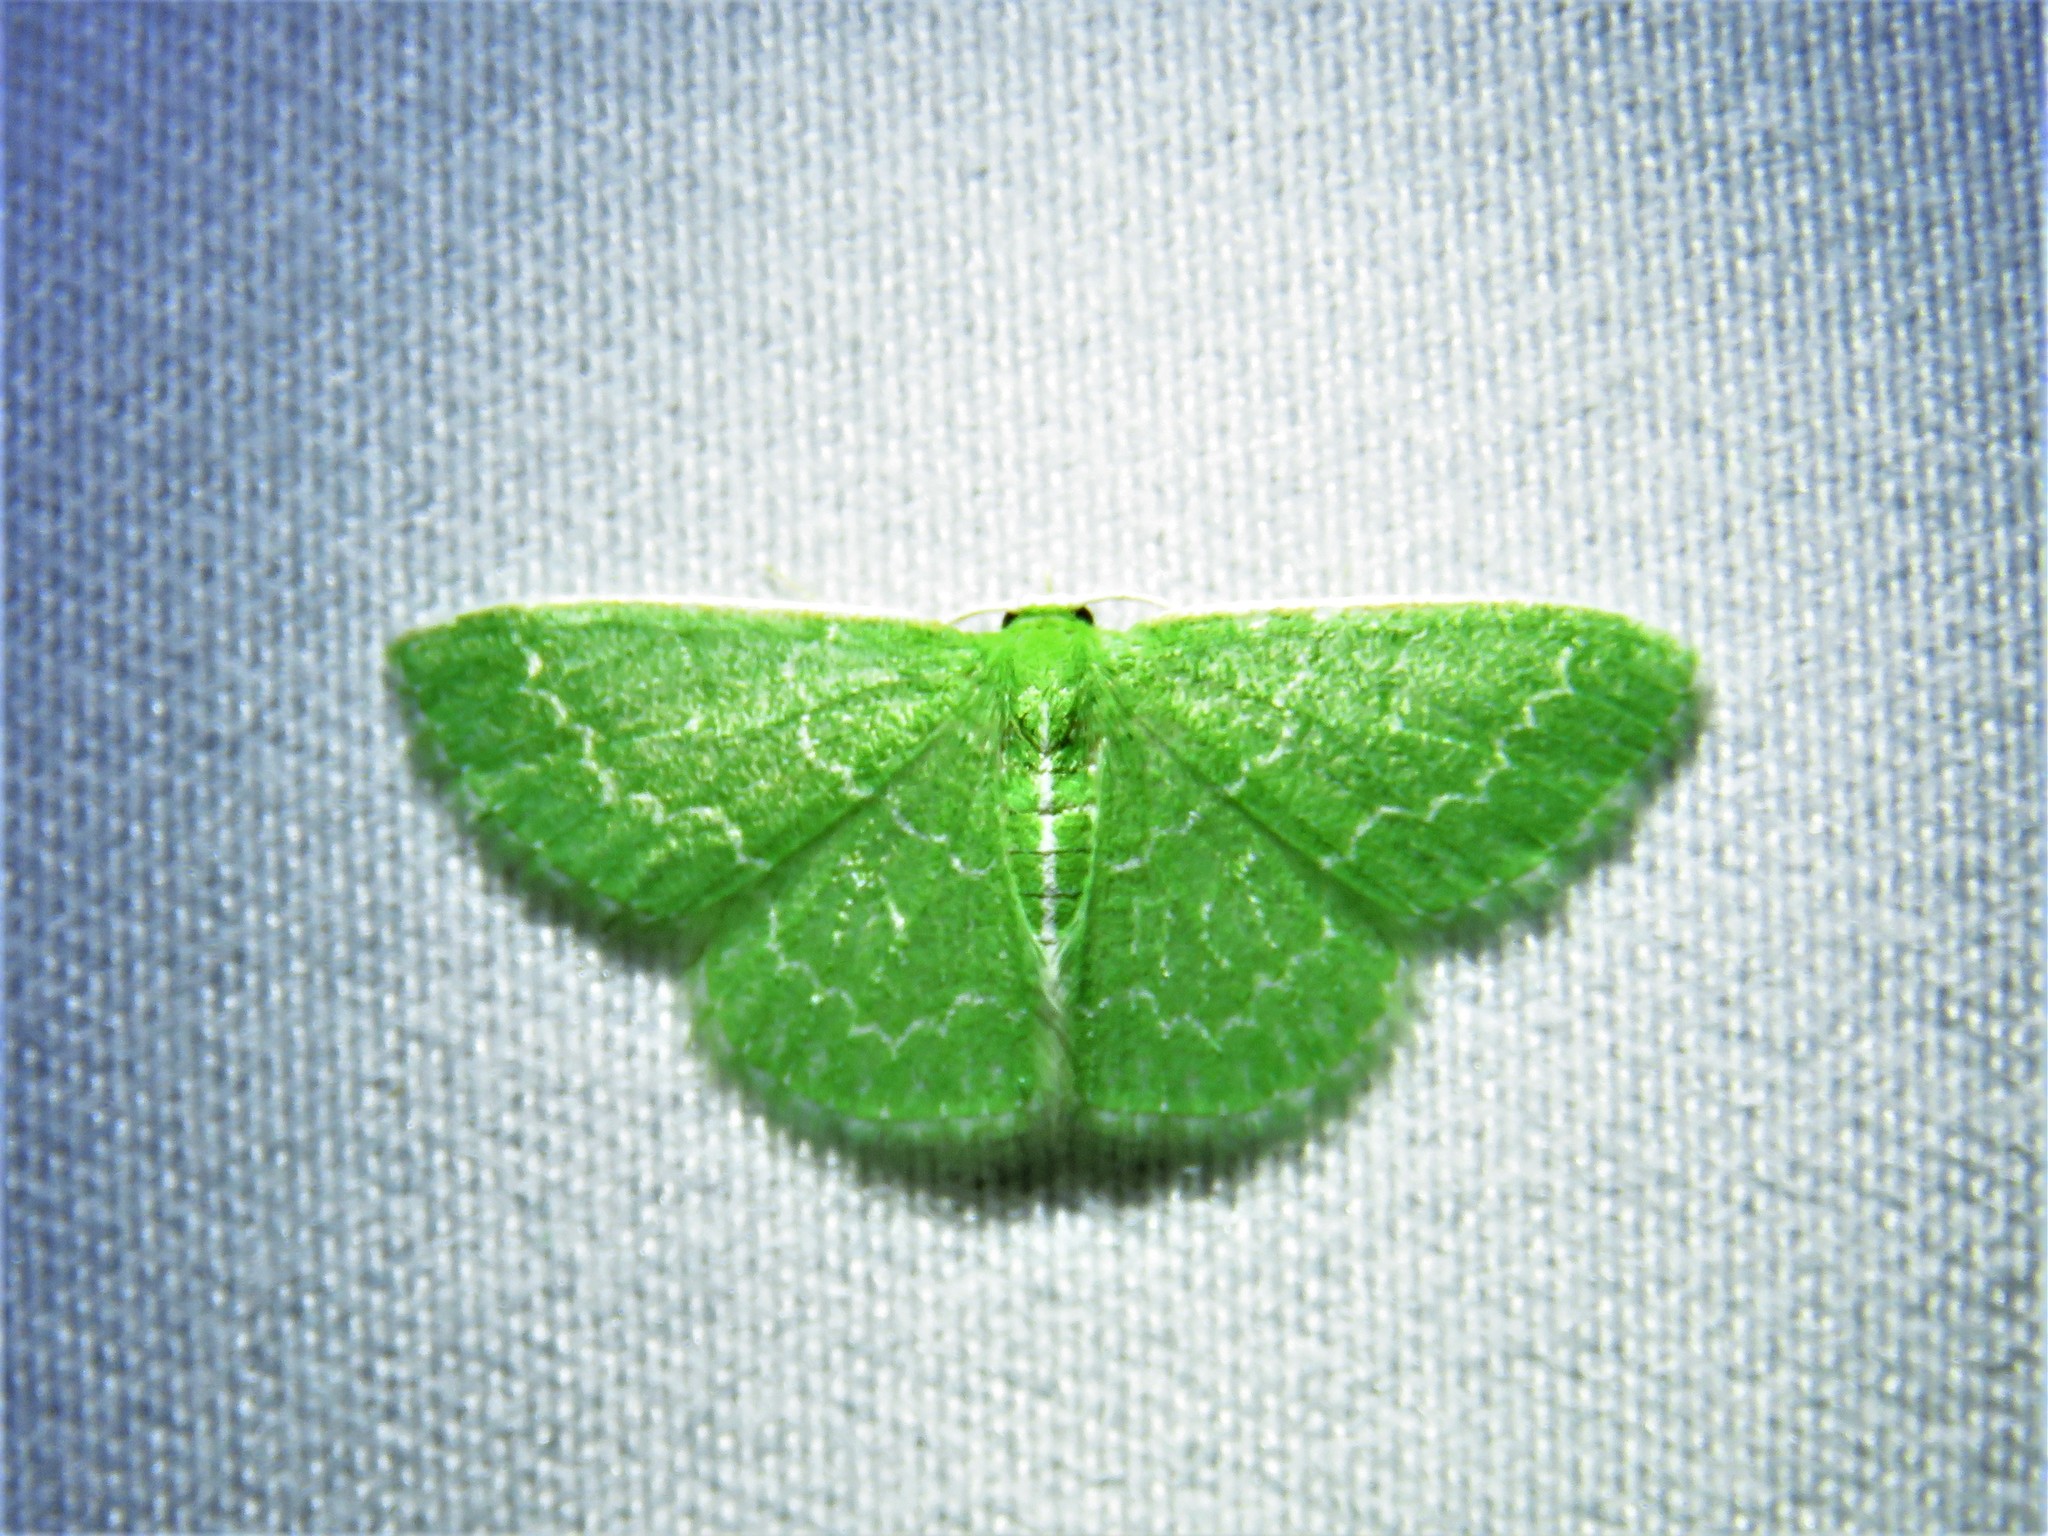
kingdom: Animalia
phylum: Arthropoda
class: Insecta
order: Lepidoptera
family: Geometridae
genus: Synchlora
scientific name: Synchlora frondaria
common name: Southern emerald
